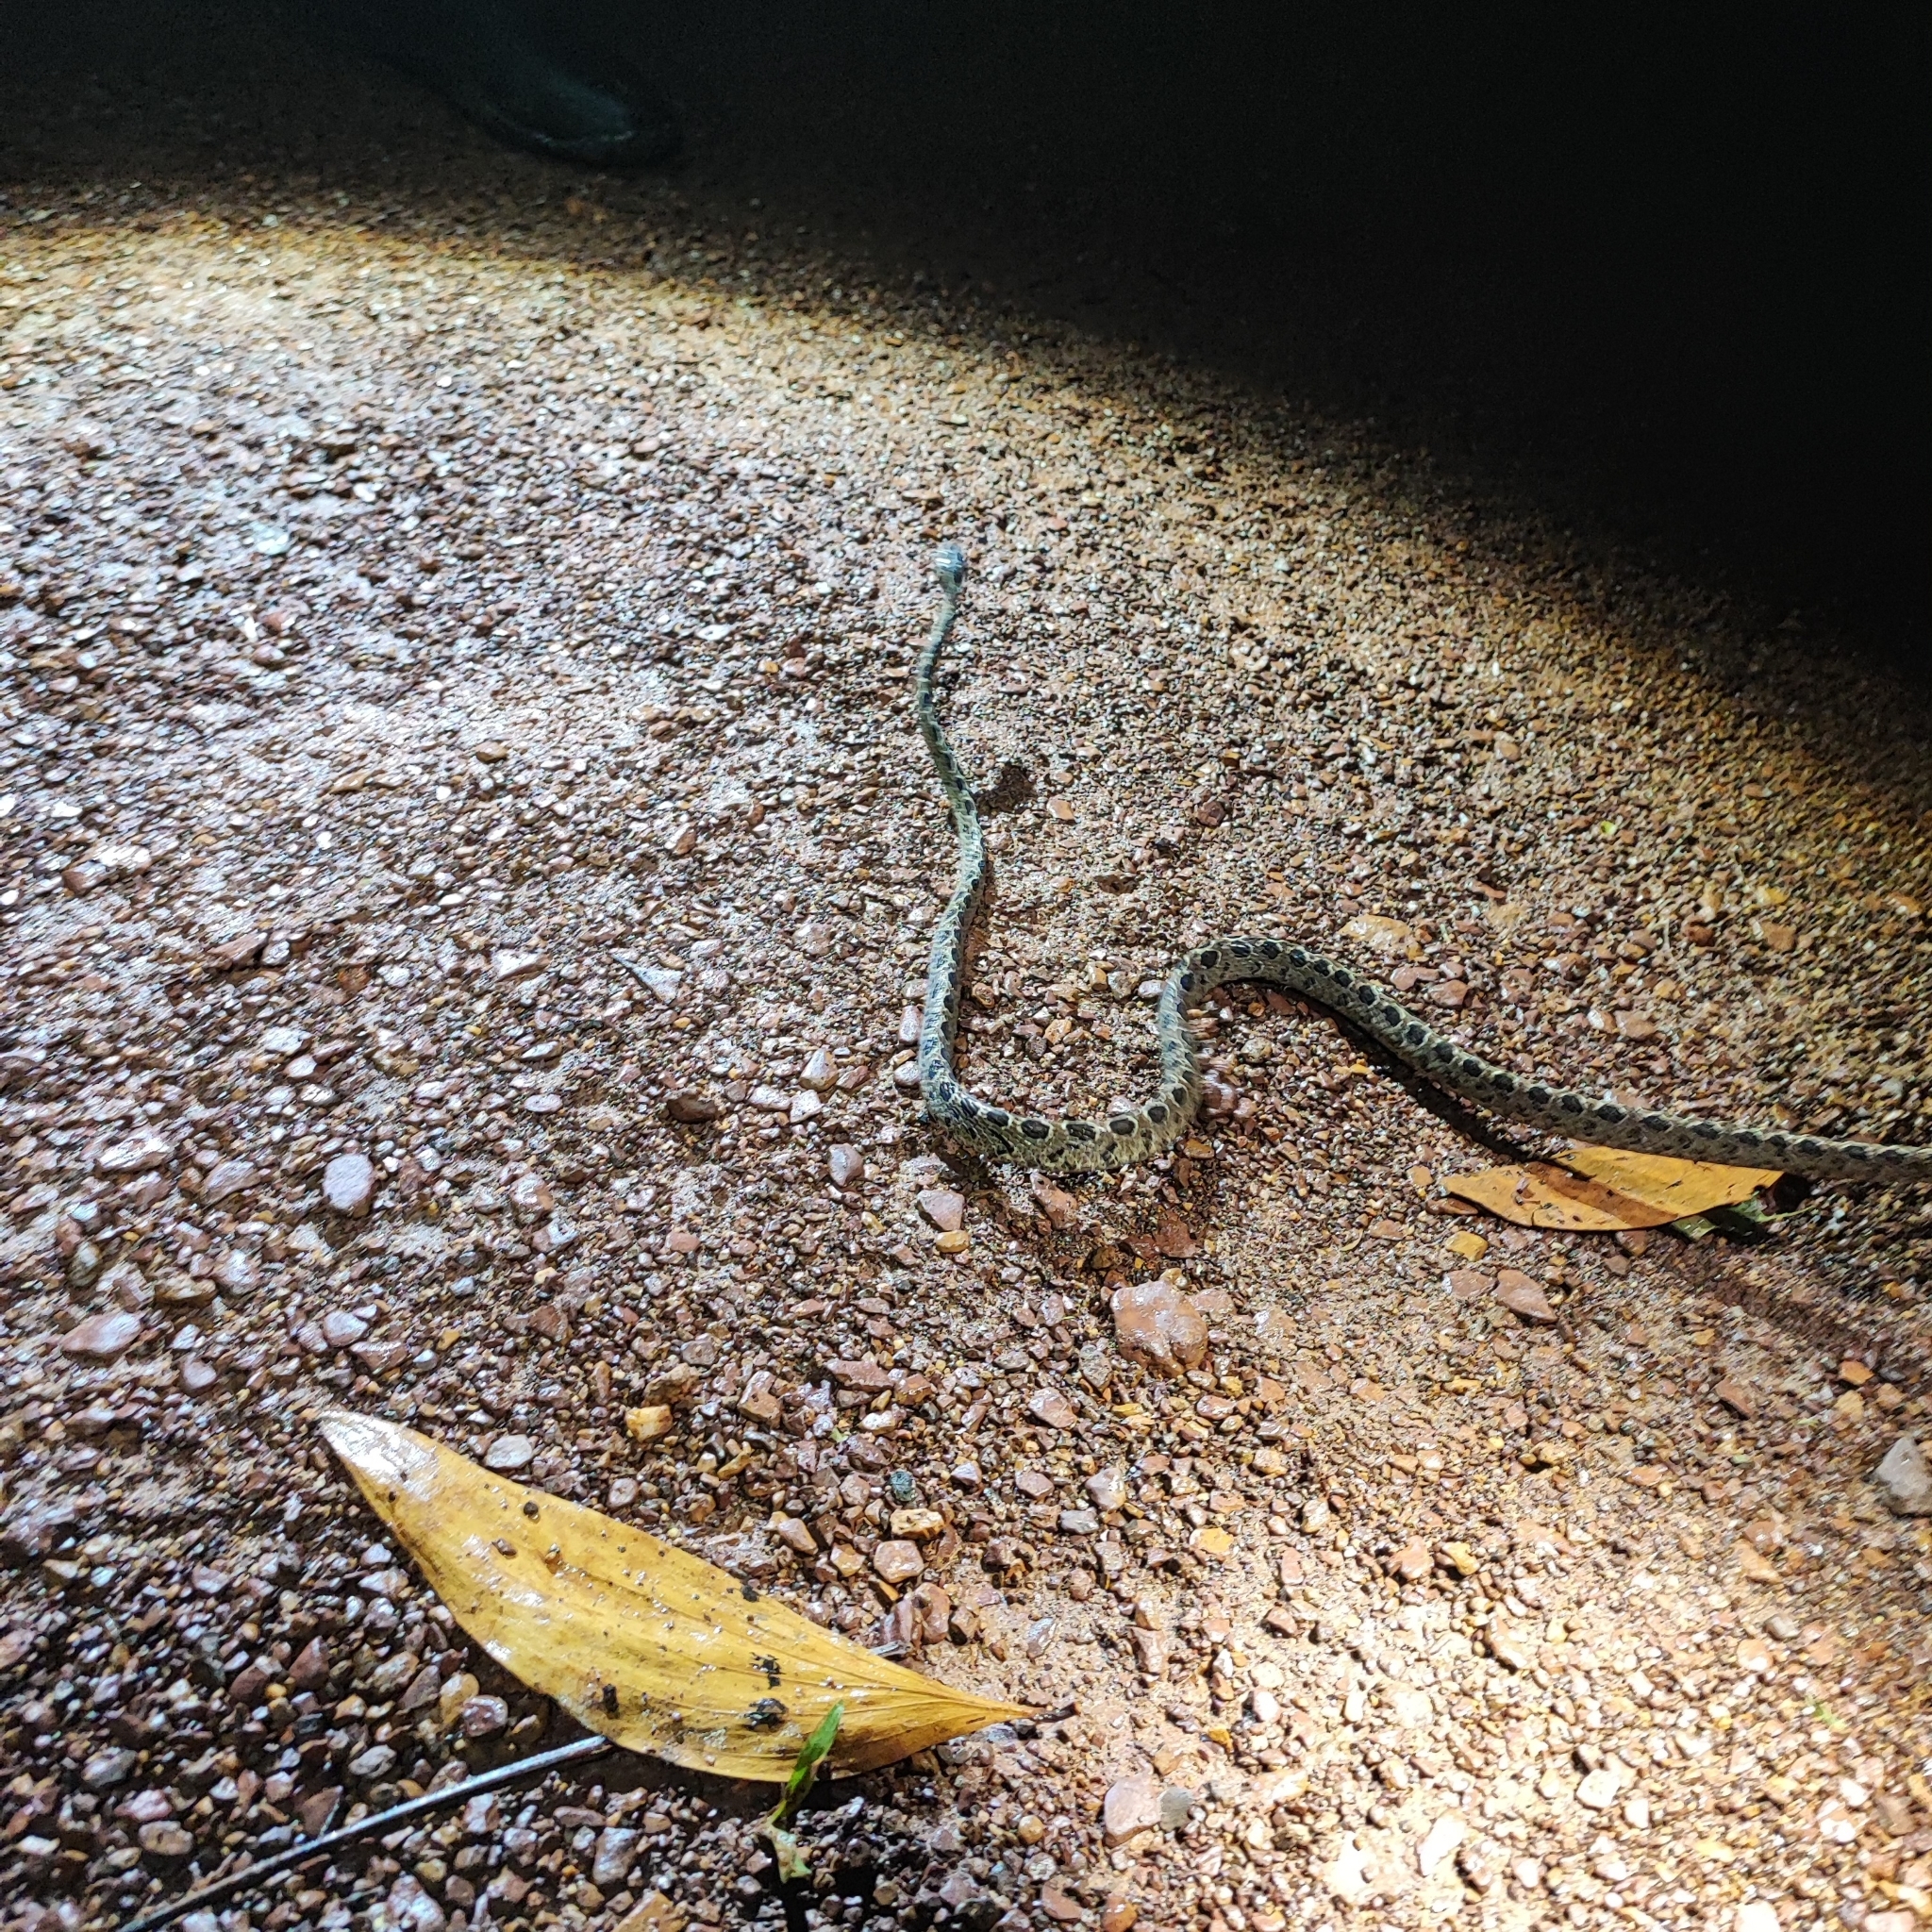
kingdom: Animalia
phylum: Chordata
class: Squamata
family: Colubridae
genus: Boiga
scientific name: Boiga multomaculata
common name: Many-spotted cat snake
